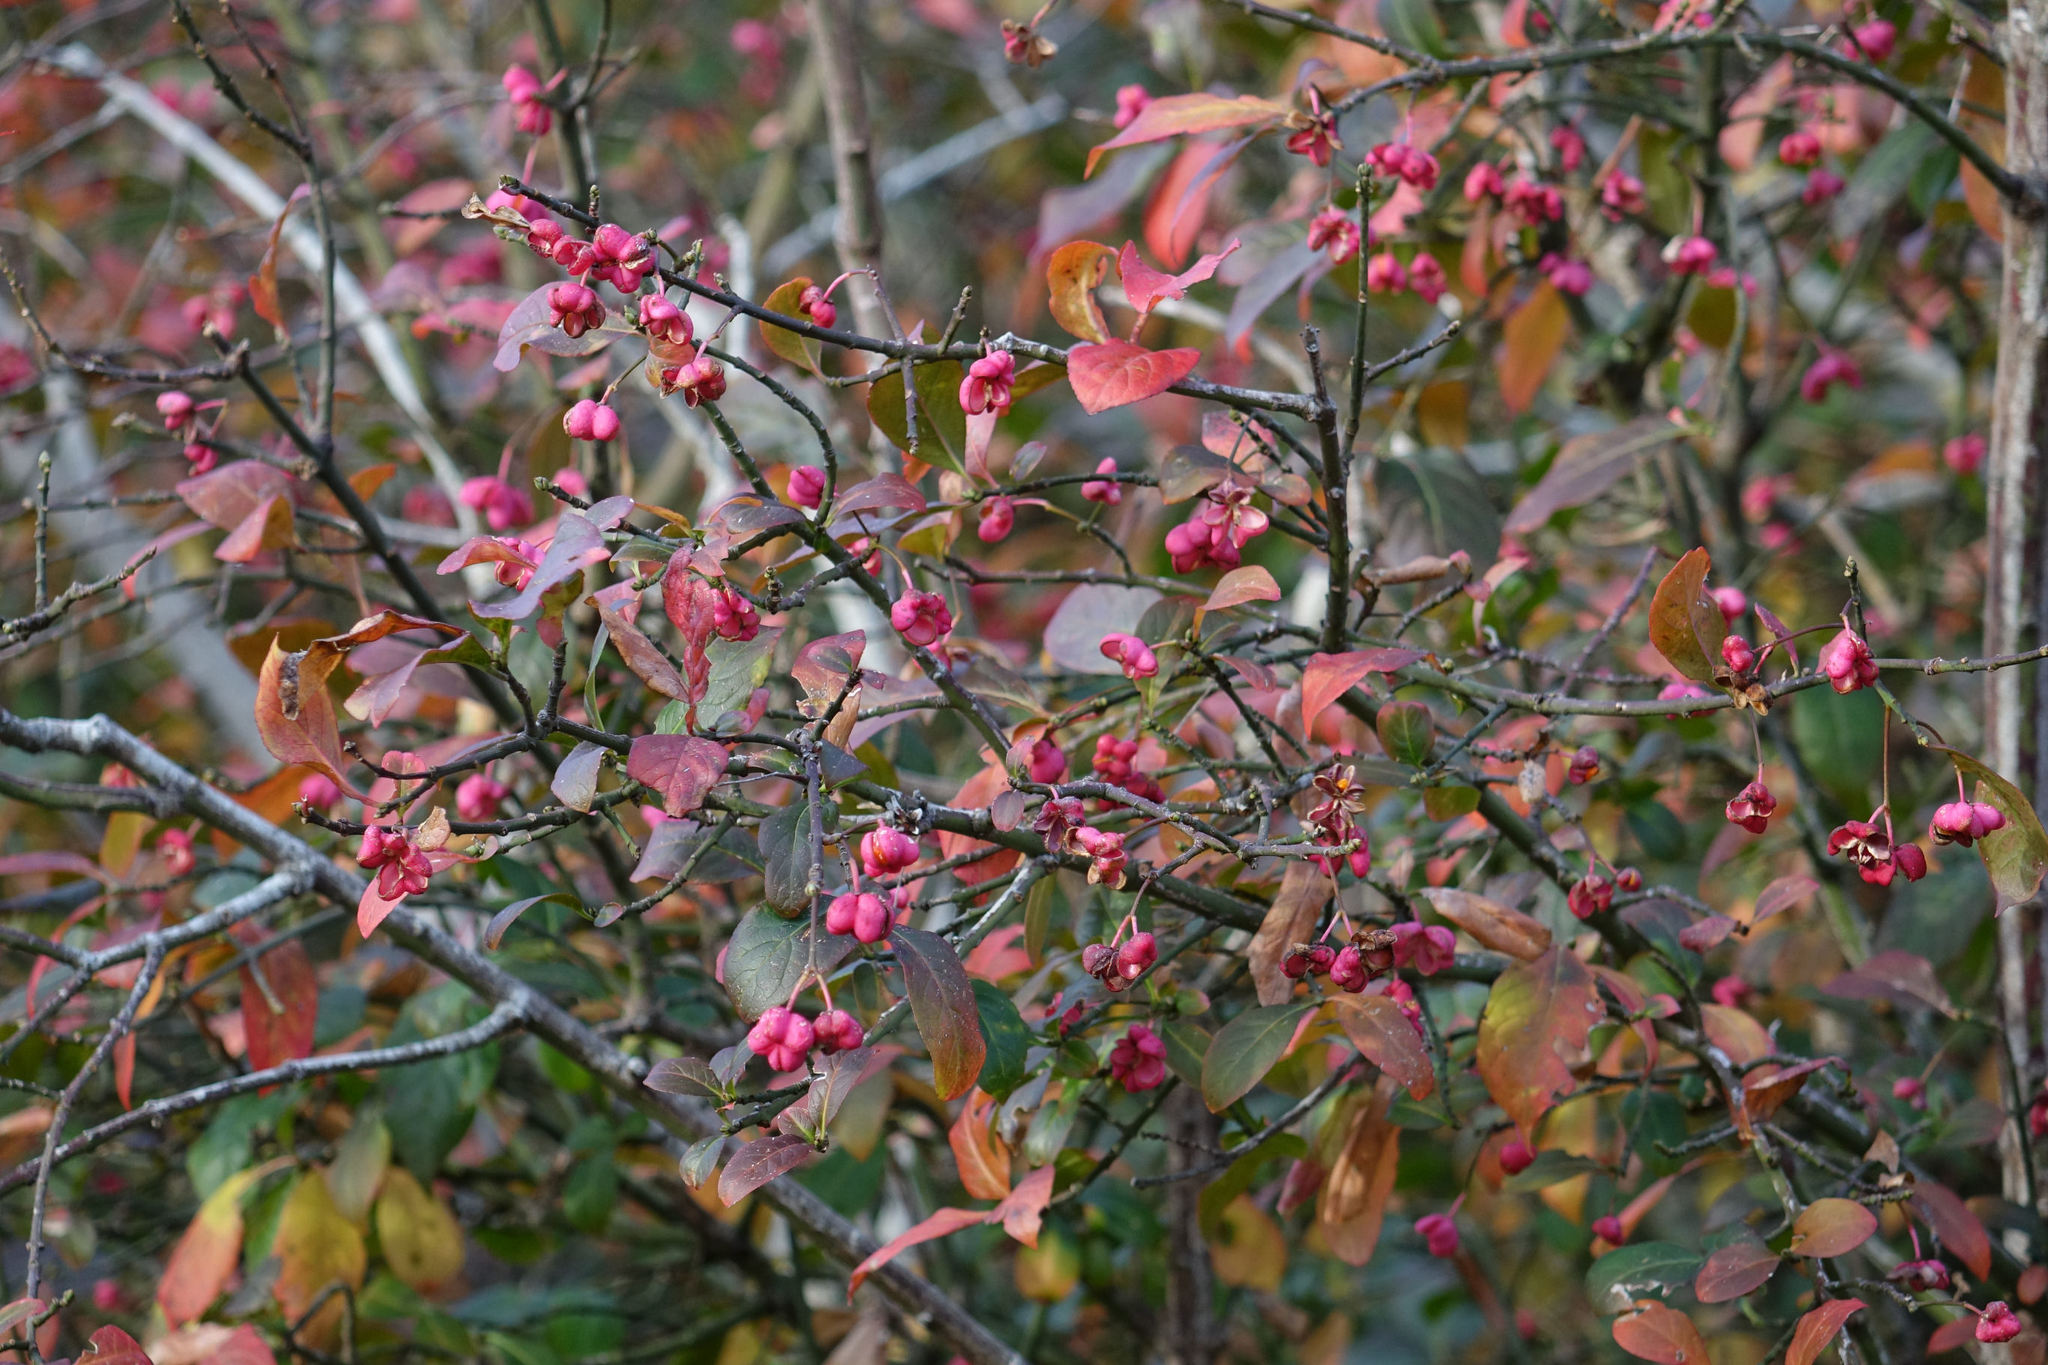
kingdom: Plantae
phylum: Tracheophyta
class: Magnoliopsida
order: Celastrales
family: Celastraceae
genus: Euonymus
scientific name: Euonymus europaeus
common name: Spindle
